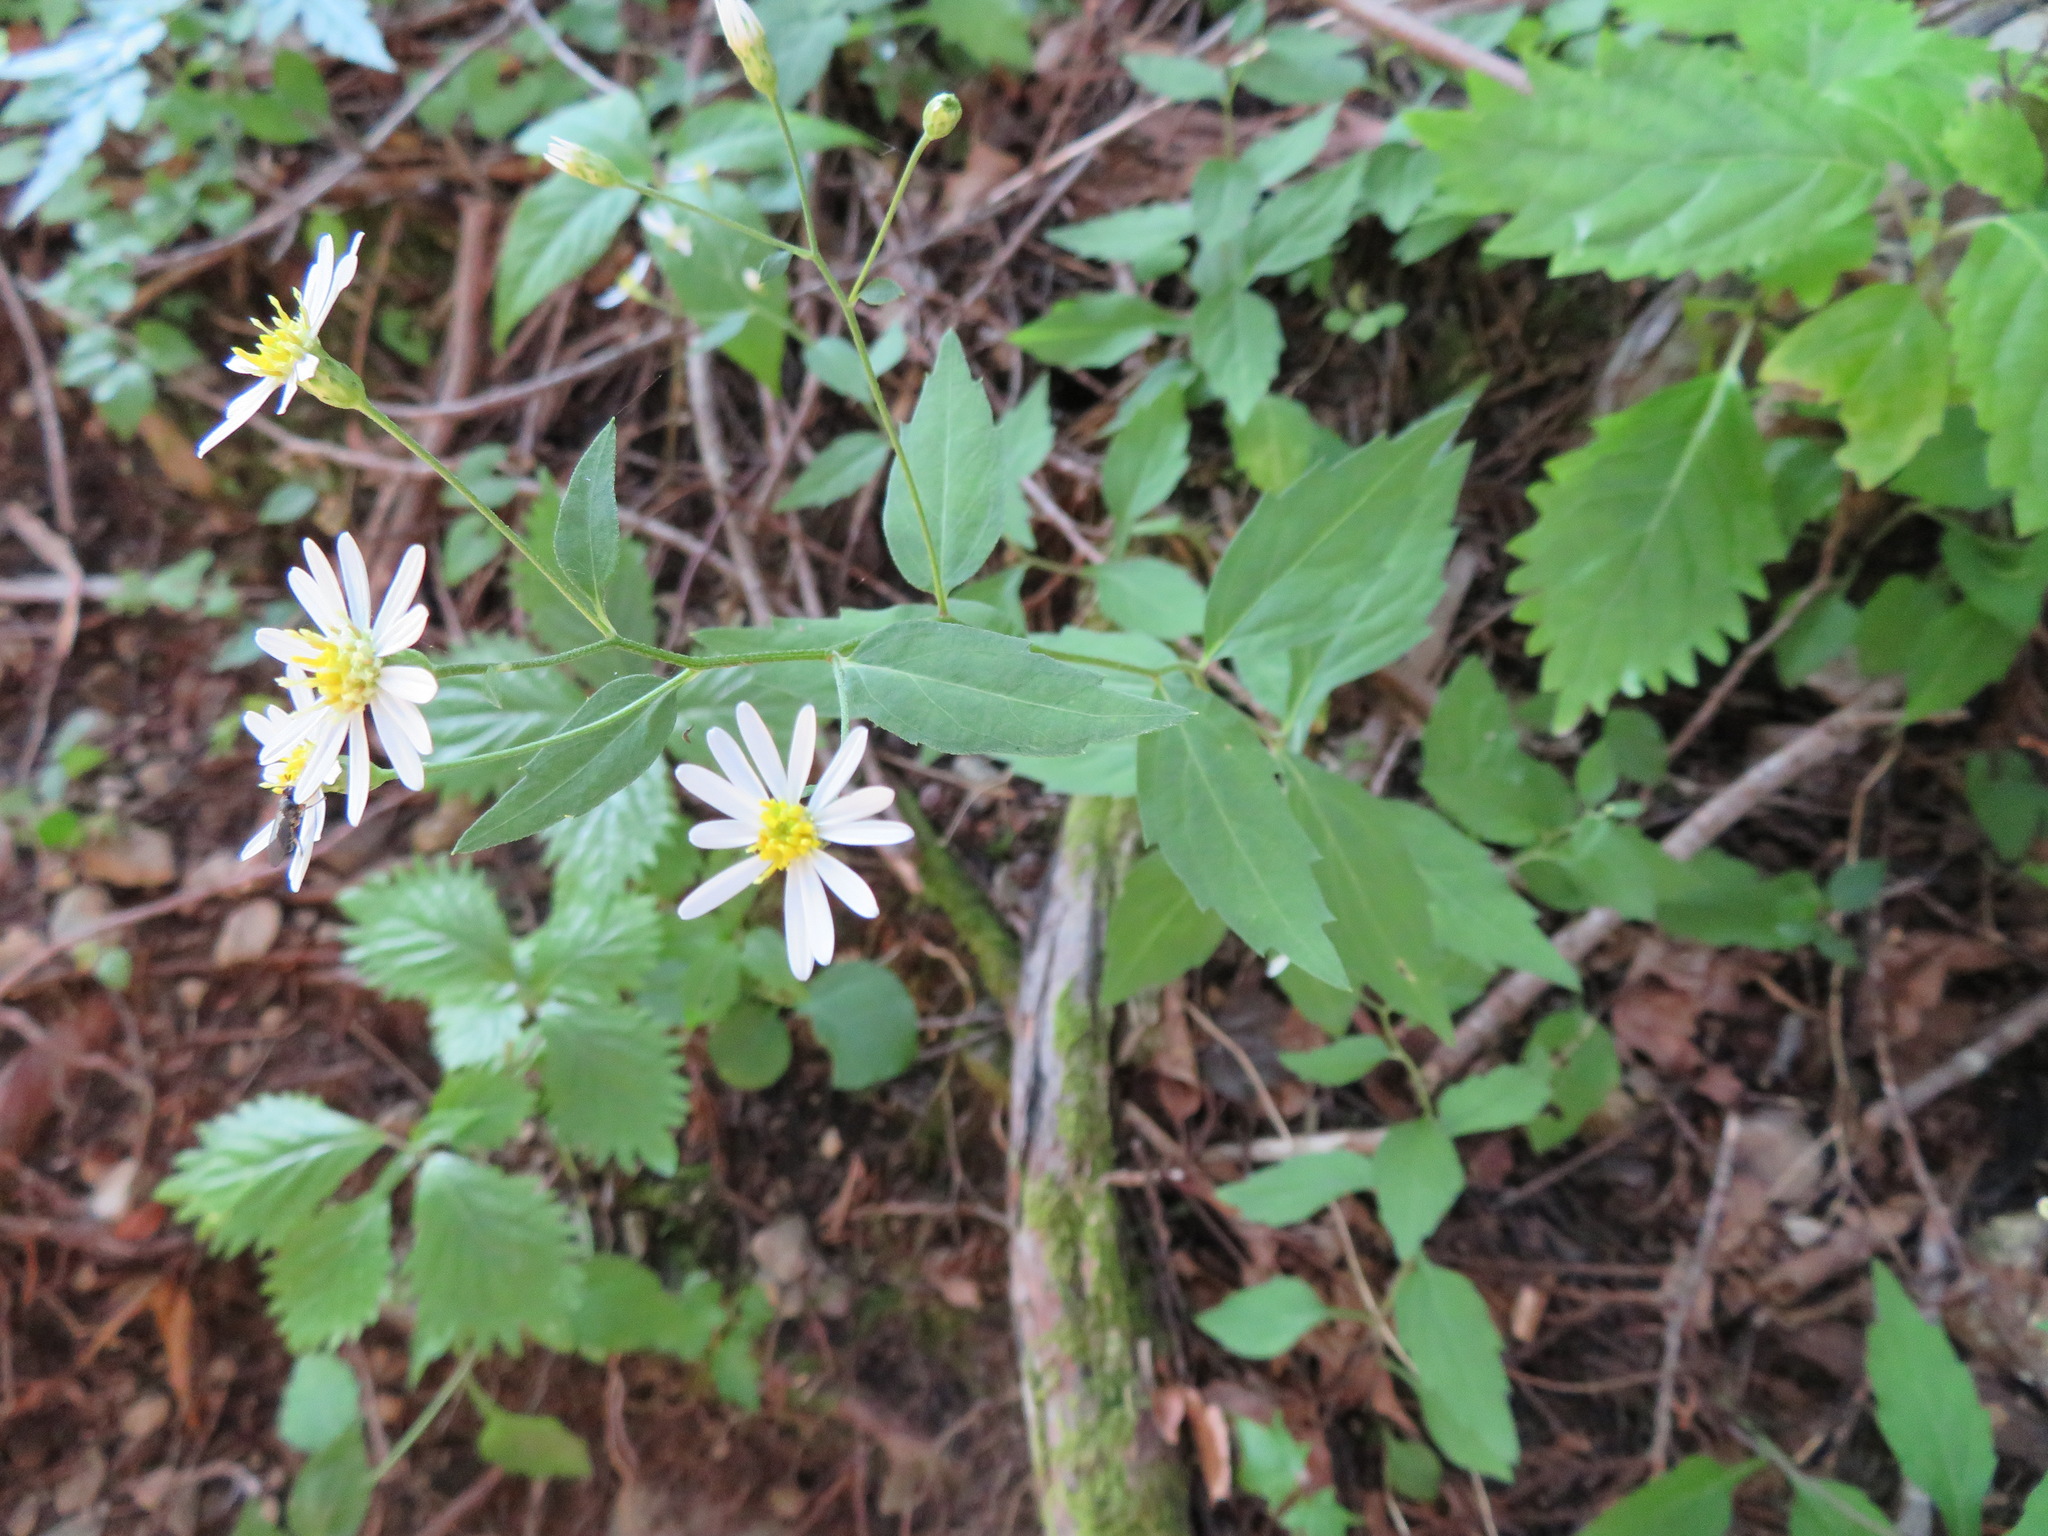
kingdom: Plantae
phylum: Tracheophyta
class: Magnoliopsida
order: Asterales
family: Asteraceae
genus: Aster
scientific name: Aster ageratoides
